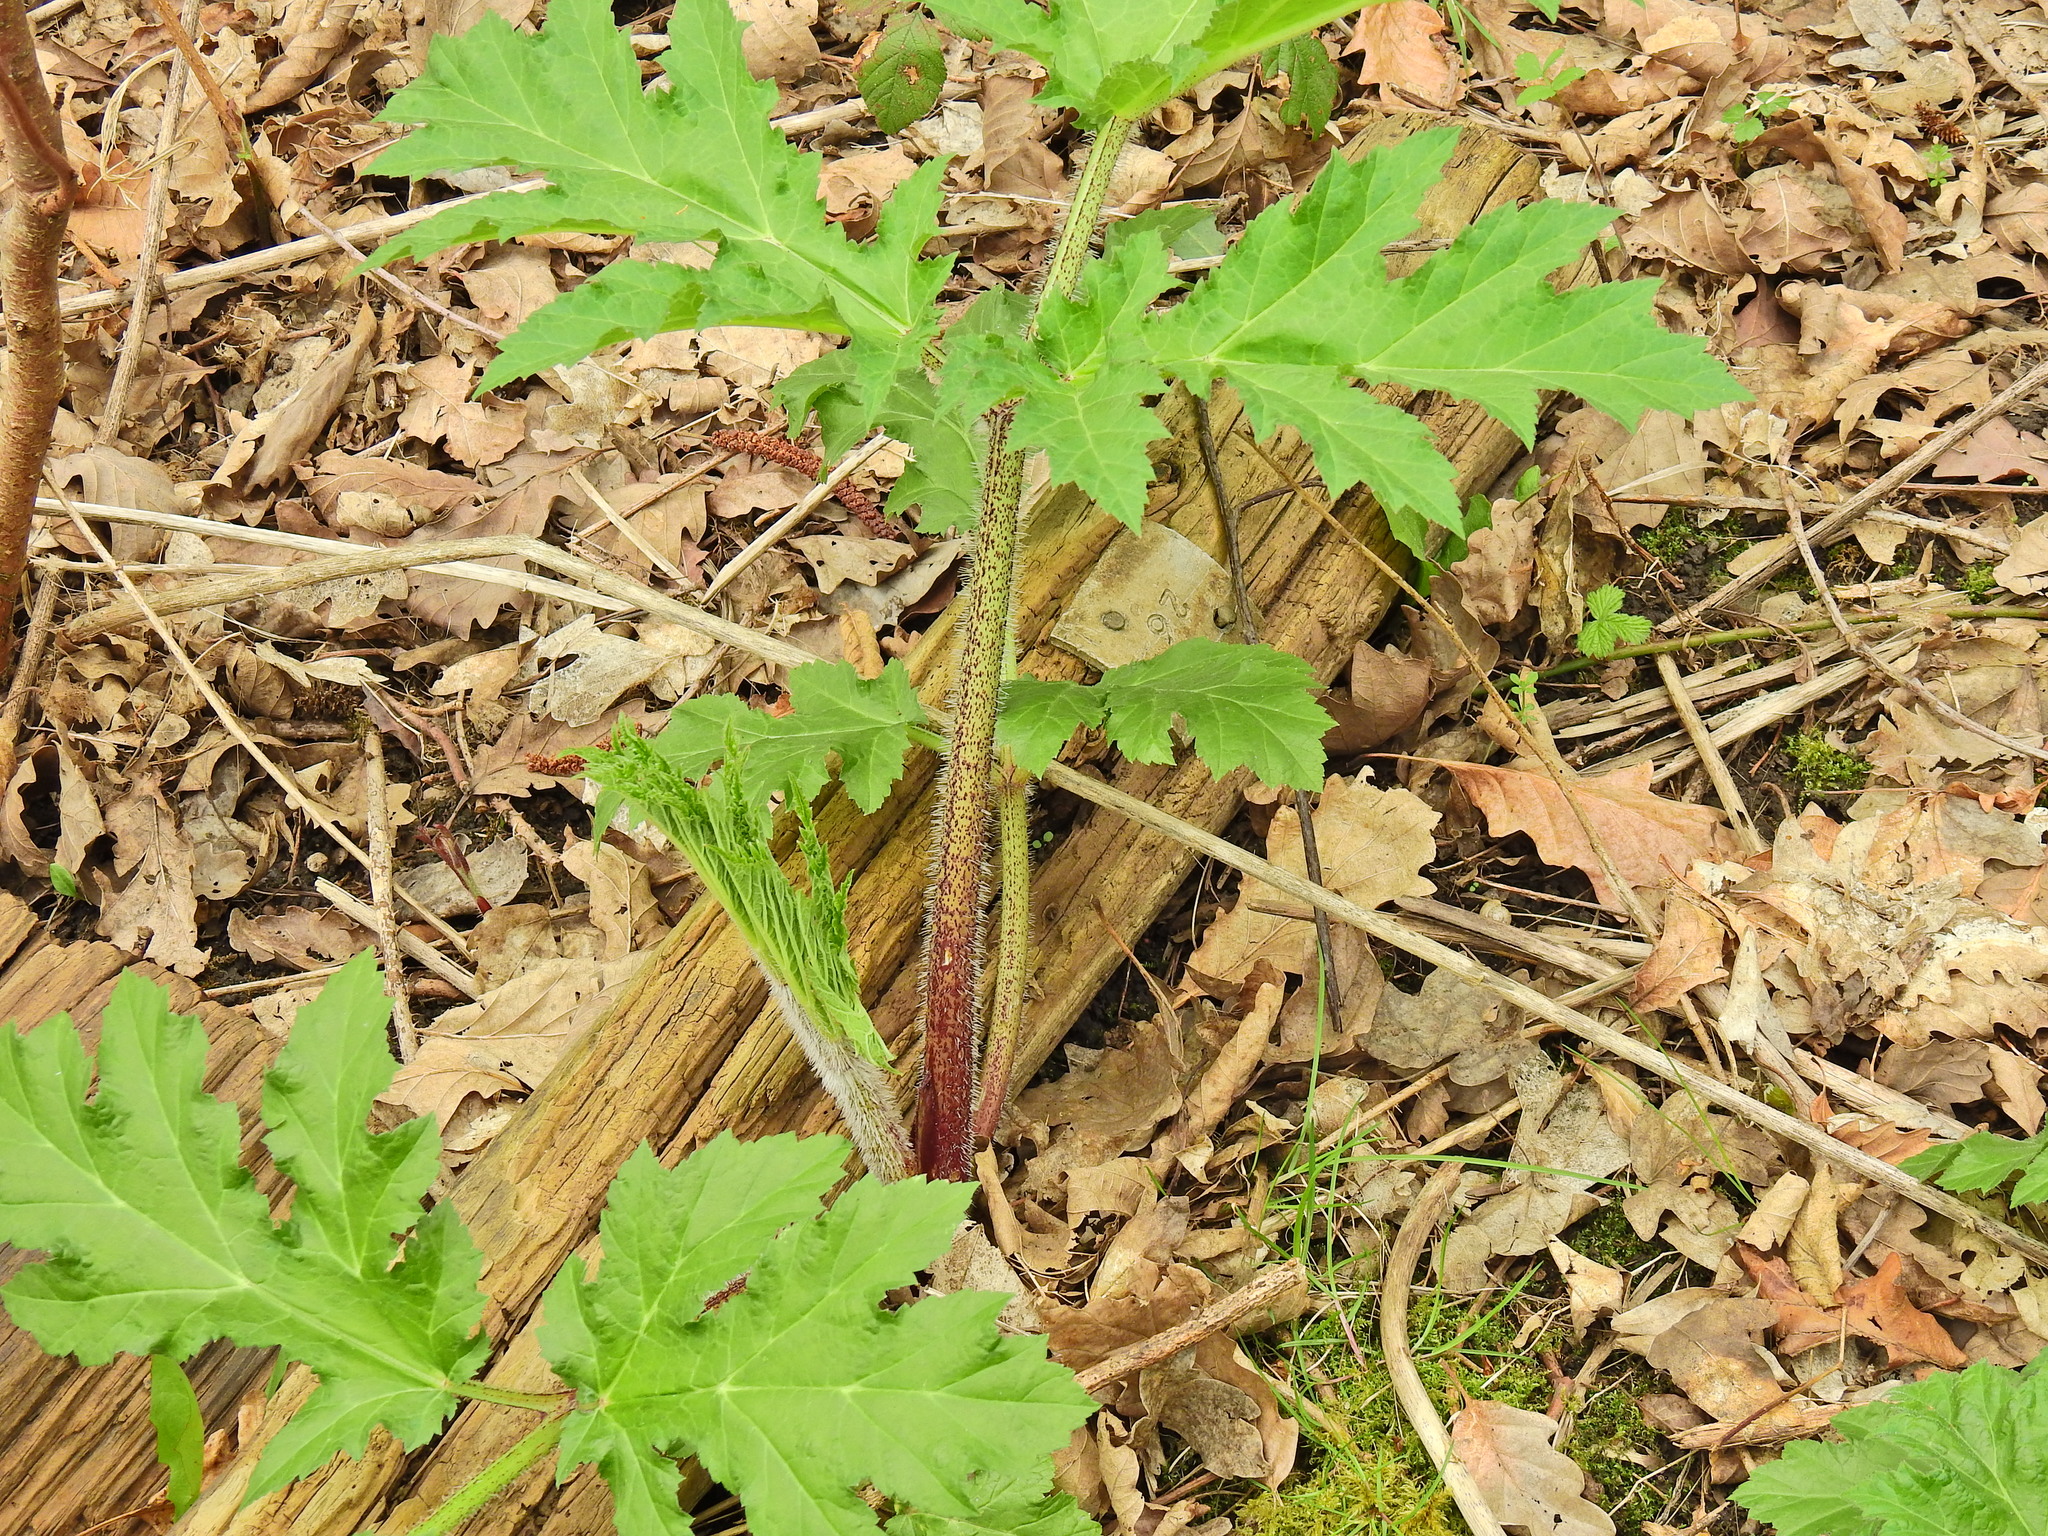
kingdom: Plantae
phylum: Tracheophyta
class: Magnoliopsida
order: Apiales
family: Apiaceae
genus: Heracleum
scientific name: Heracleum mantegazzianum
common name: Giant hogweed
